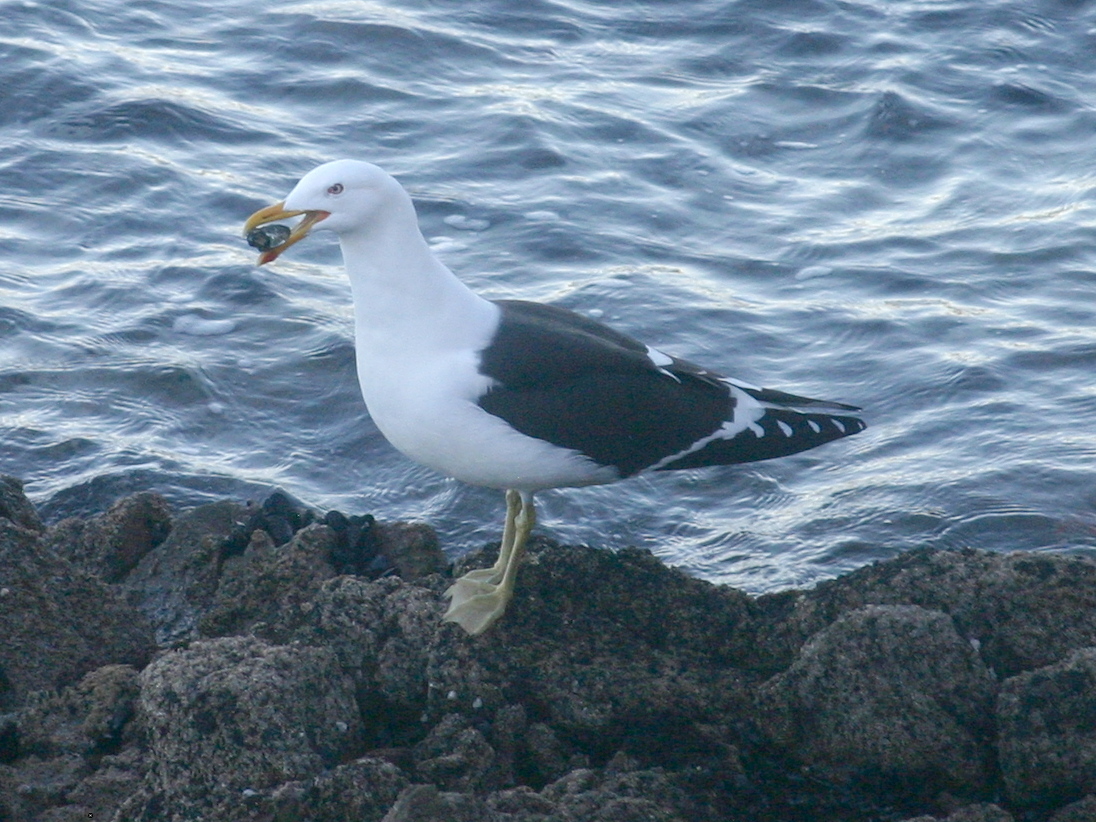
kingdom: Animalia
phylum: Chordata
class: Aves
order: Charadriiformes
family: Laridae
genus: Larus
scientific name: Larus dominicanus
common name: Kelp gull
